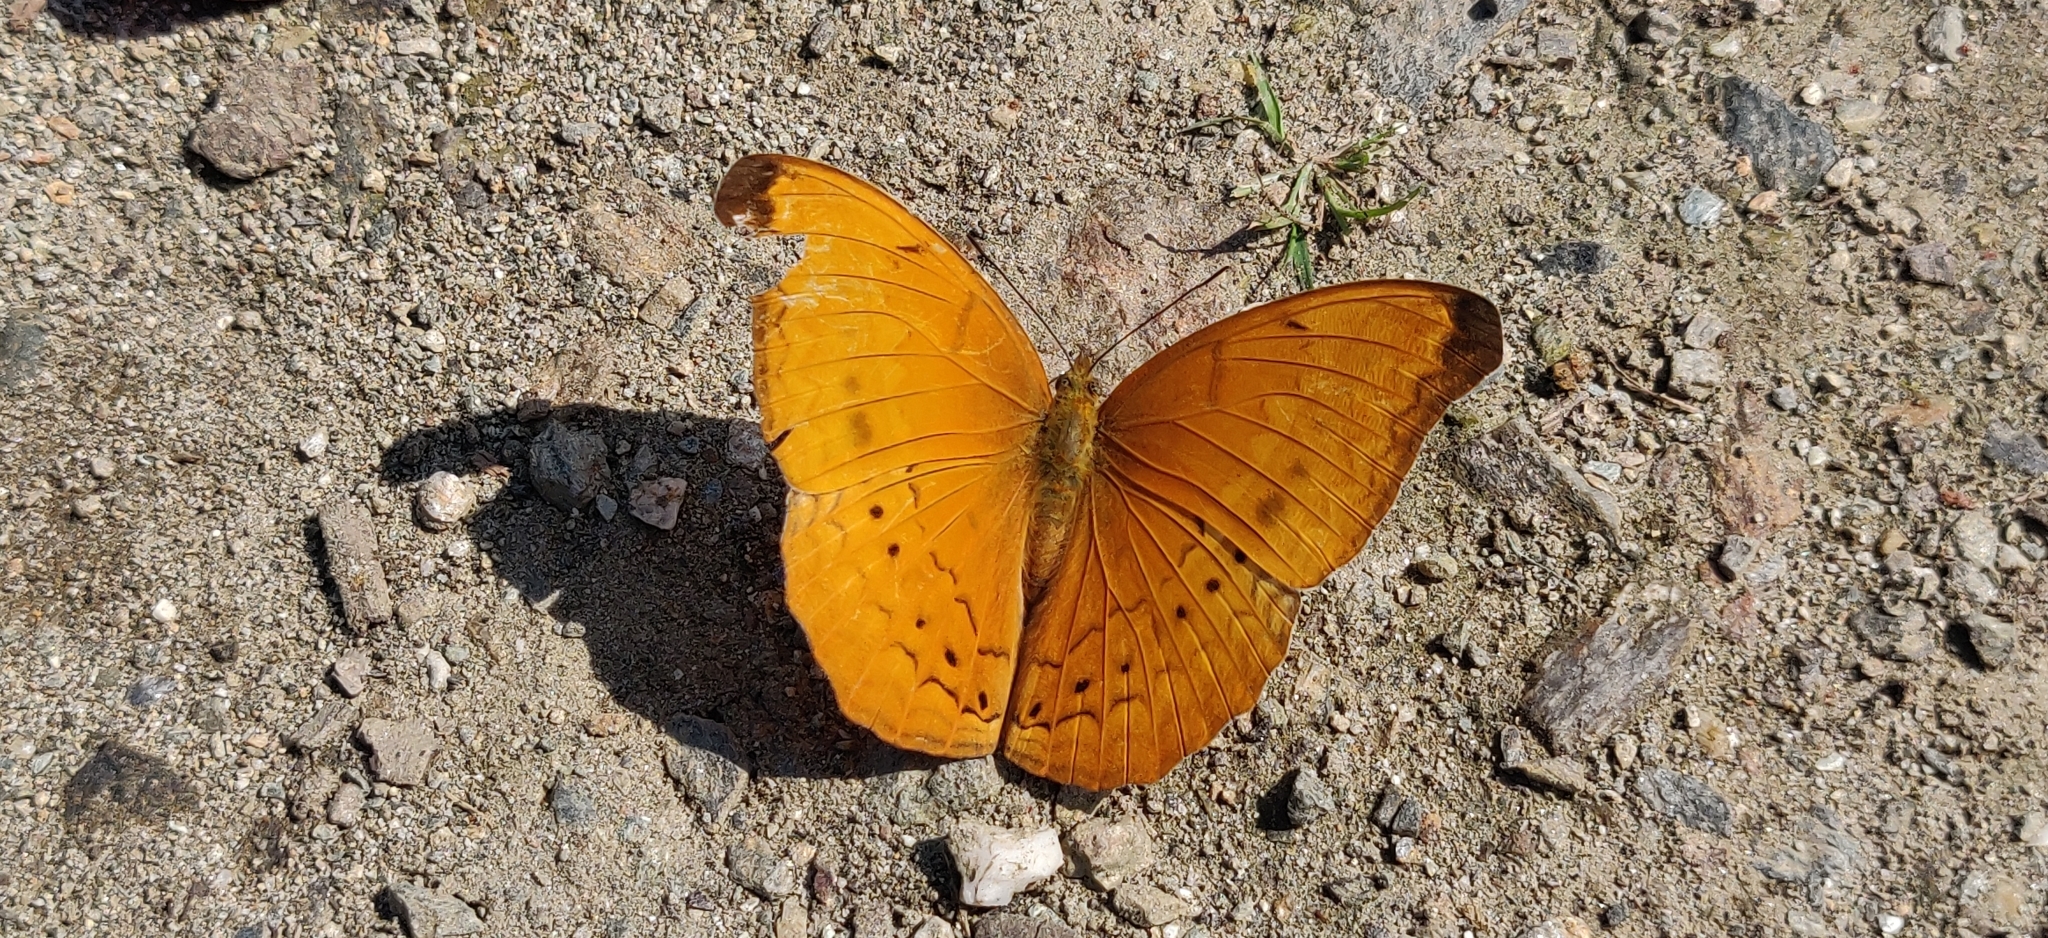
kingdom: Animalia
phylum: Arthropoda
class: Insecta
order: Lepidoptera
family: Nymphalidae
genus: Cirrochroa
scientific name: Cirrochroa aoris
